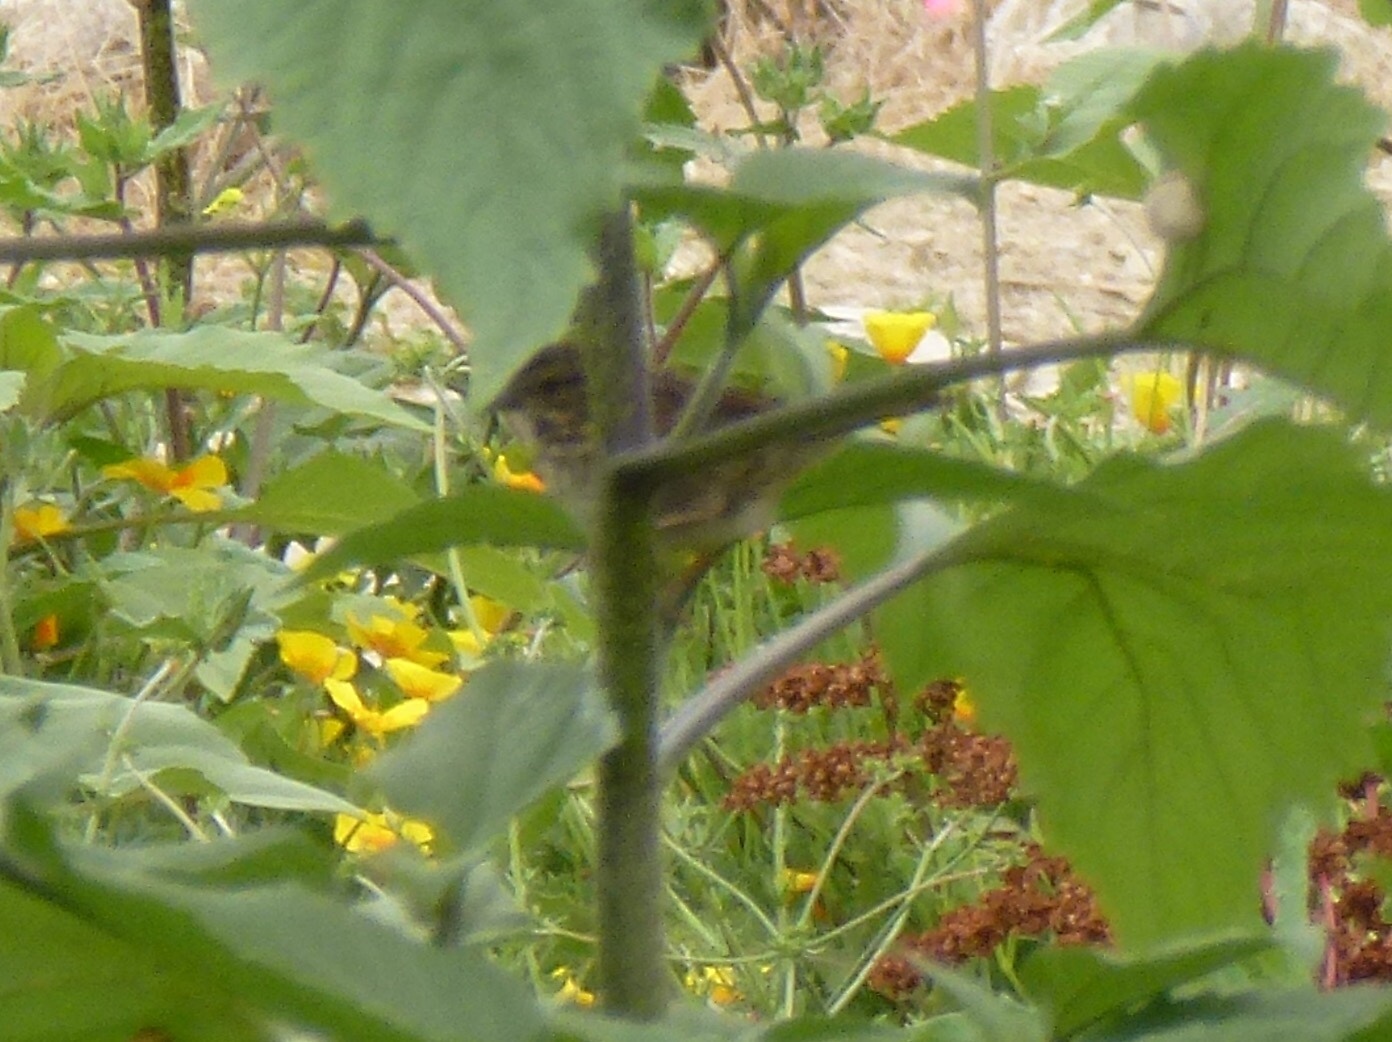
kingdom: Animalia
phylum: Chordata
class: Aves
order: Passeriformes
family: Passerellidae
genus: Melospiza
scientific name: Melospiza melodia
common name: Song sparrow
